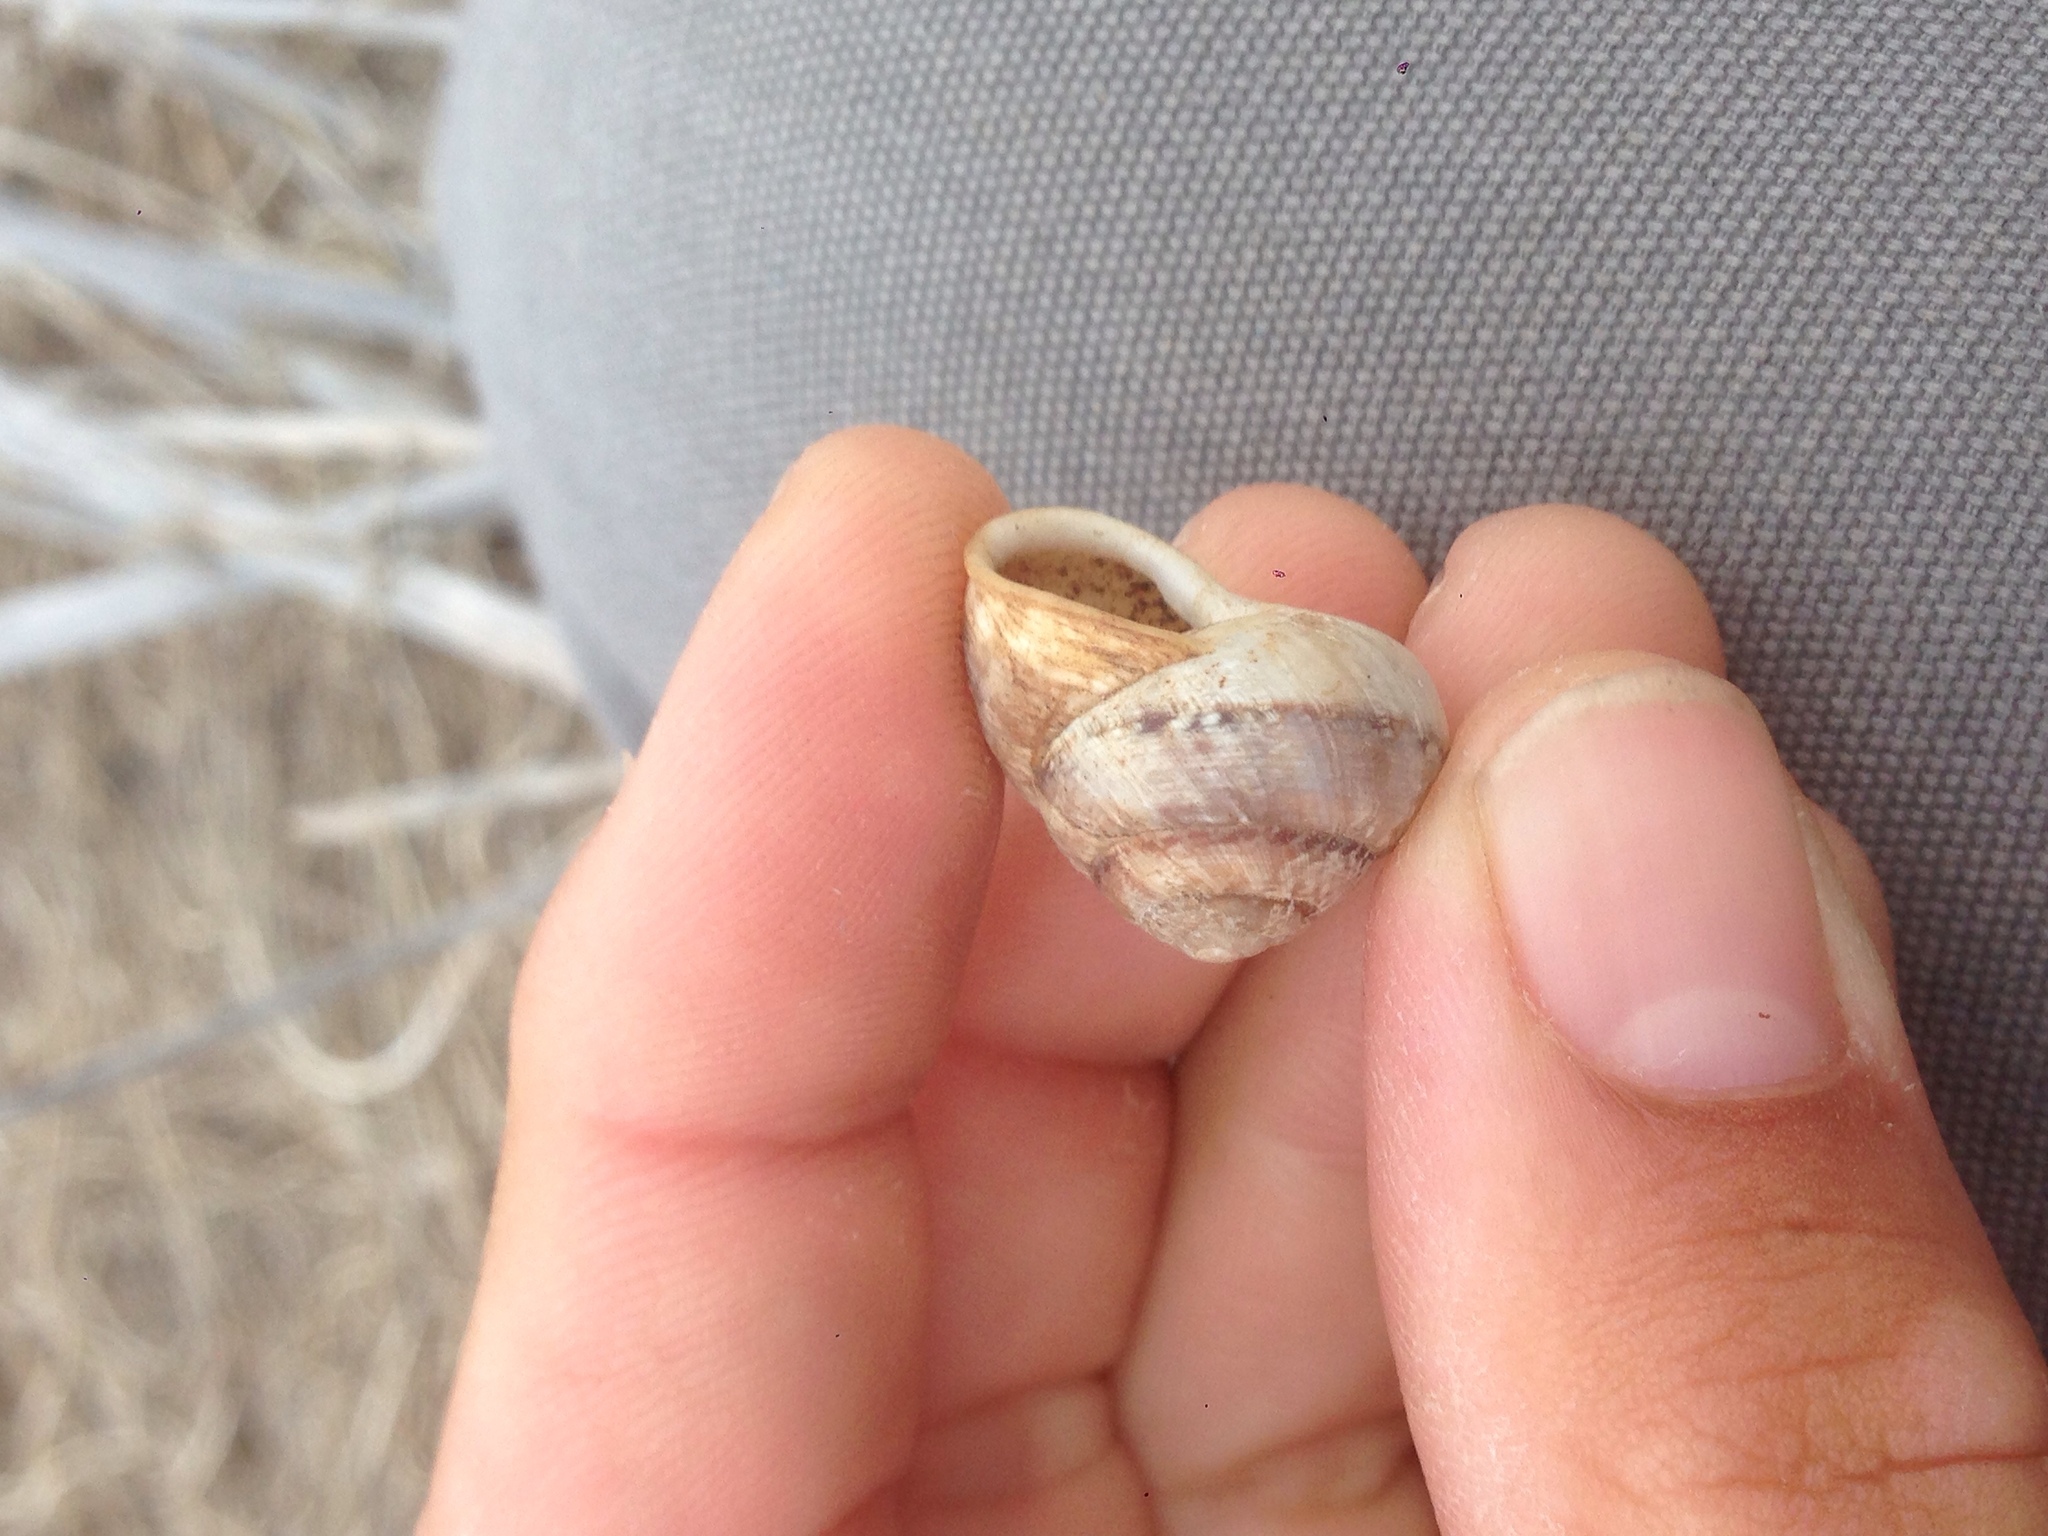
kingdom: Animalia
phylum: Mollusca
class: Gastropoda
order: Stylommatophora
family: Xanthonychidae
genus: Xerarionta
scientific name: Xerarionta tryoni
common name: Bicolor cactus snail
